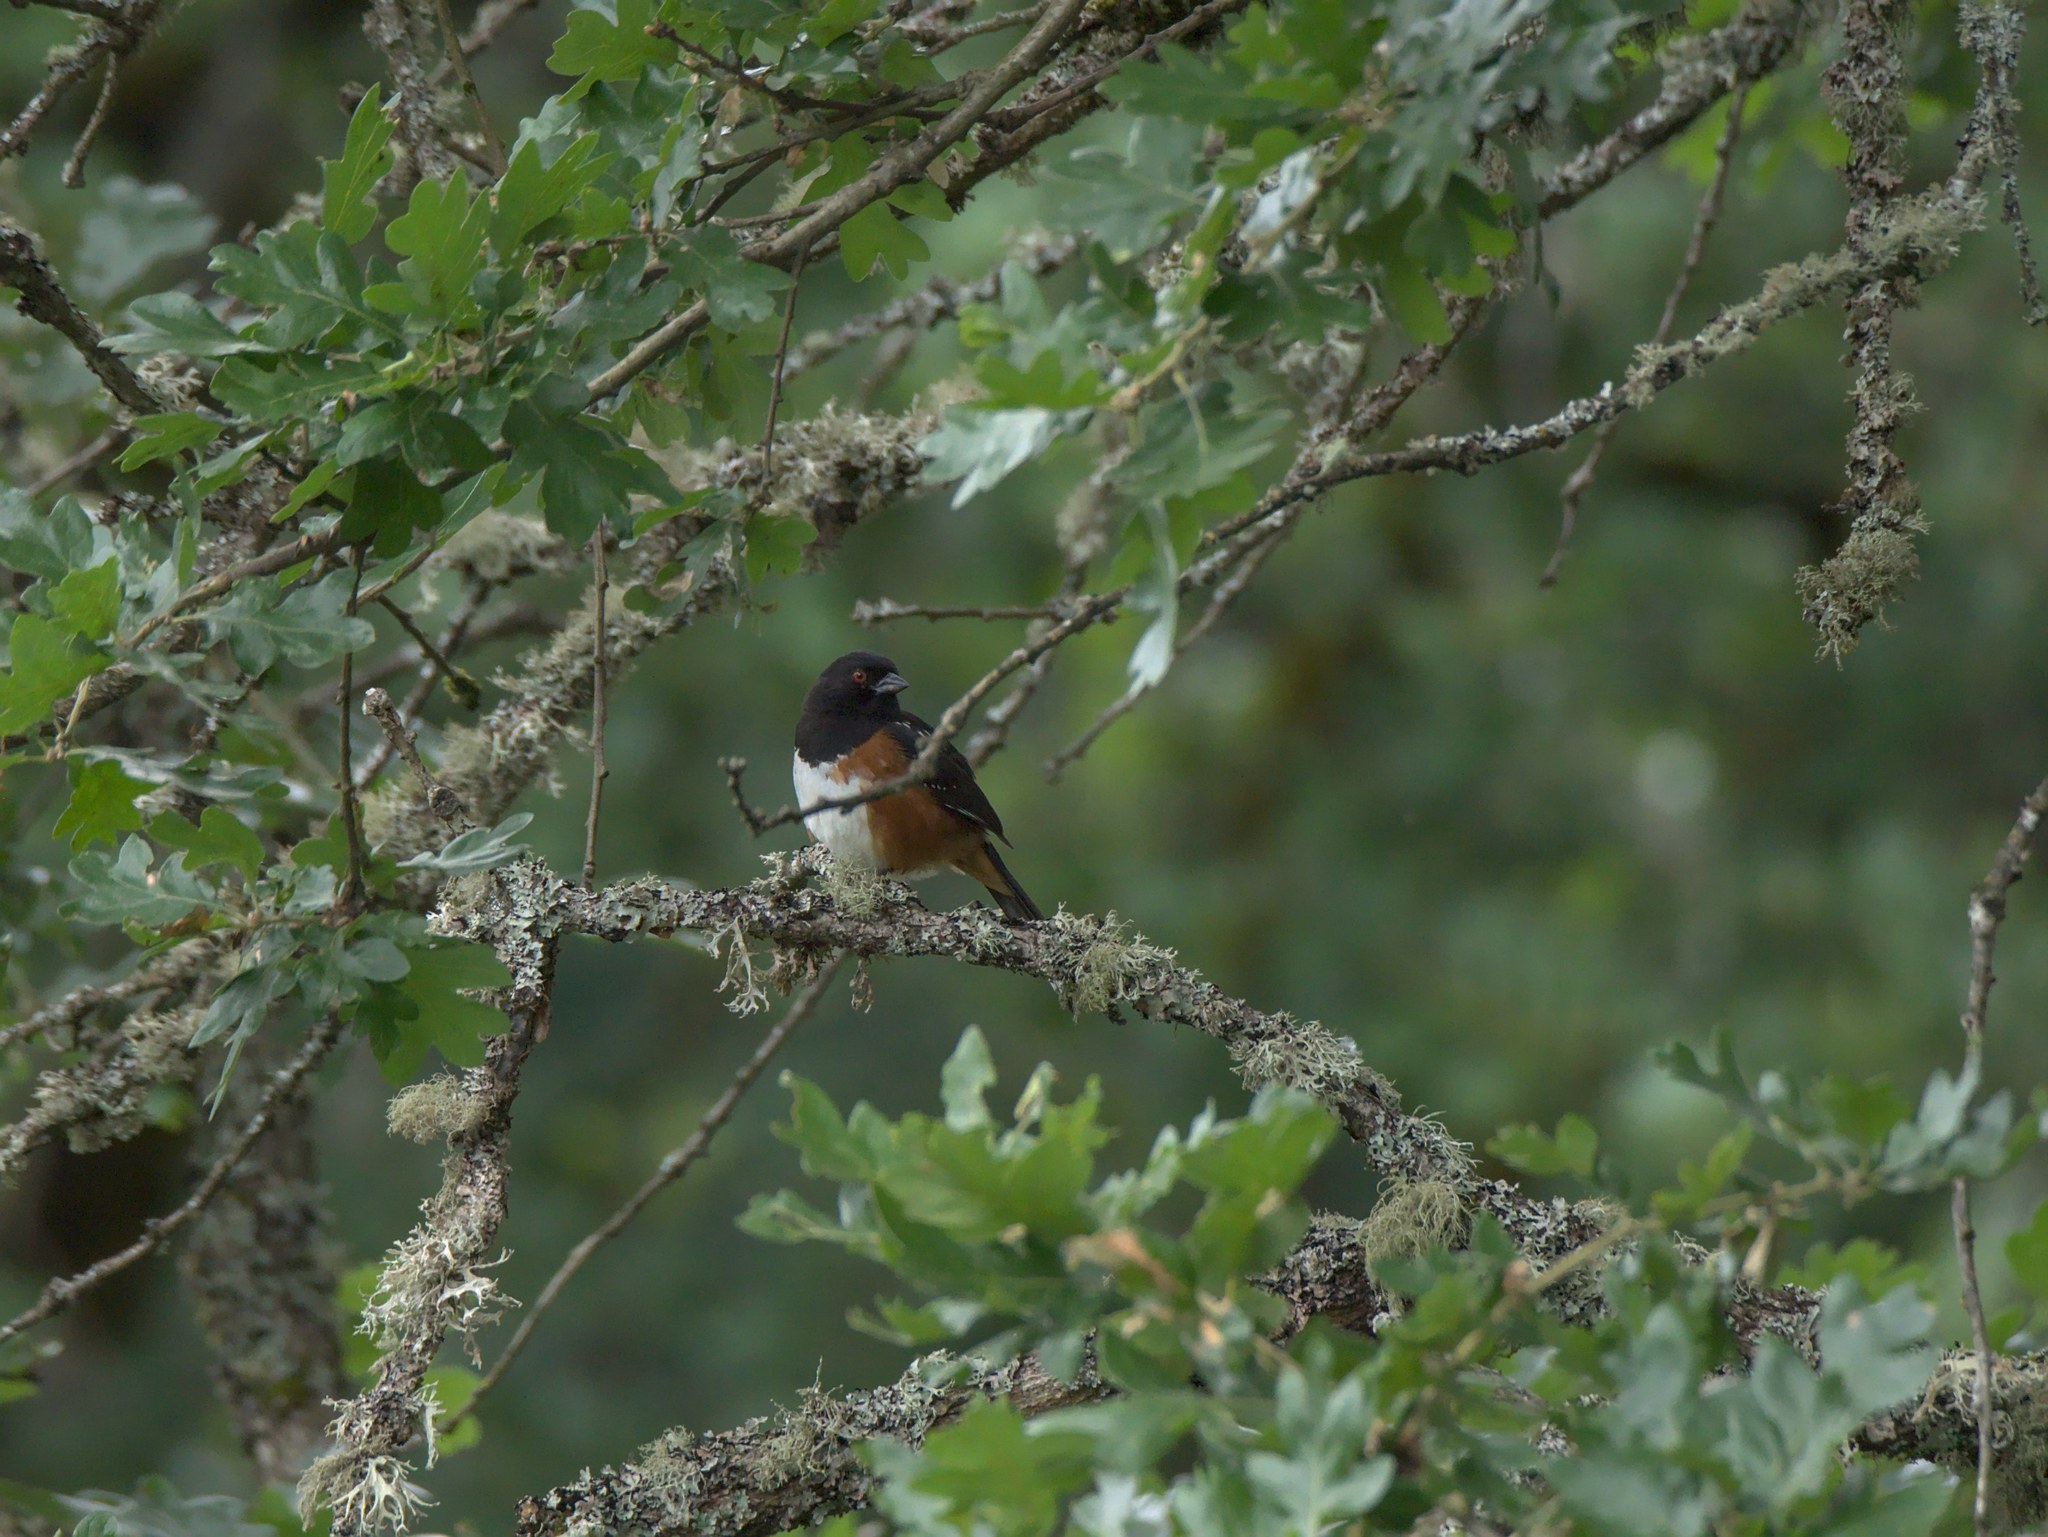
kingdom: Animalia
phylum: Chordata
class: Aves
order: Passeriformes
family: Passerellidae
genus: Pipilo
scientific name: Pipilo maculatus
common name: Spotted towhee
